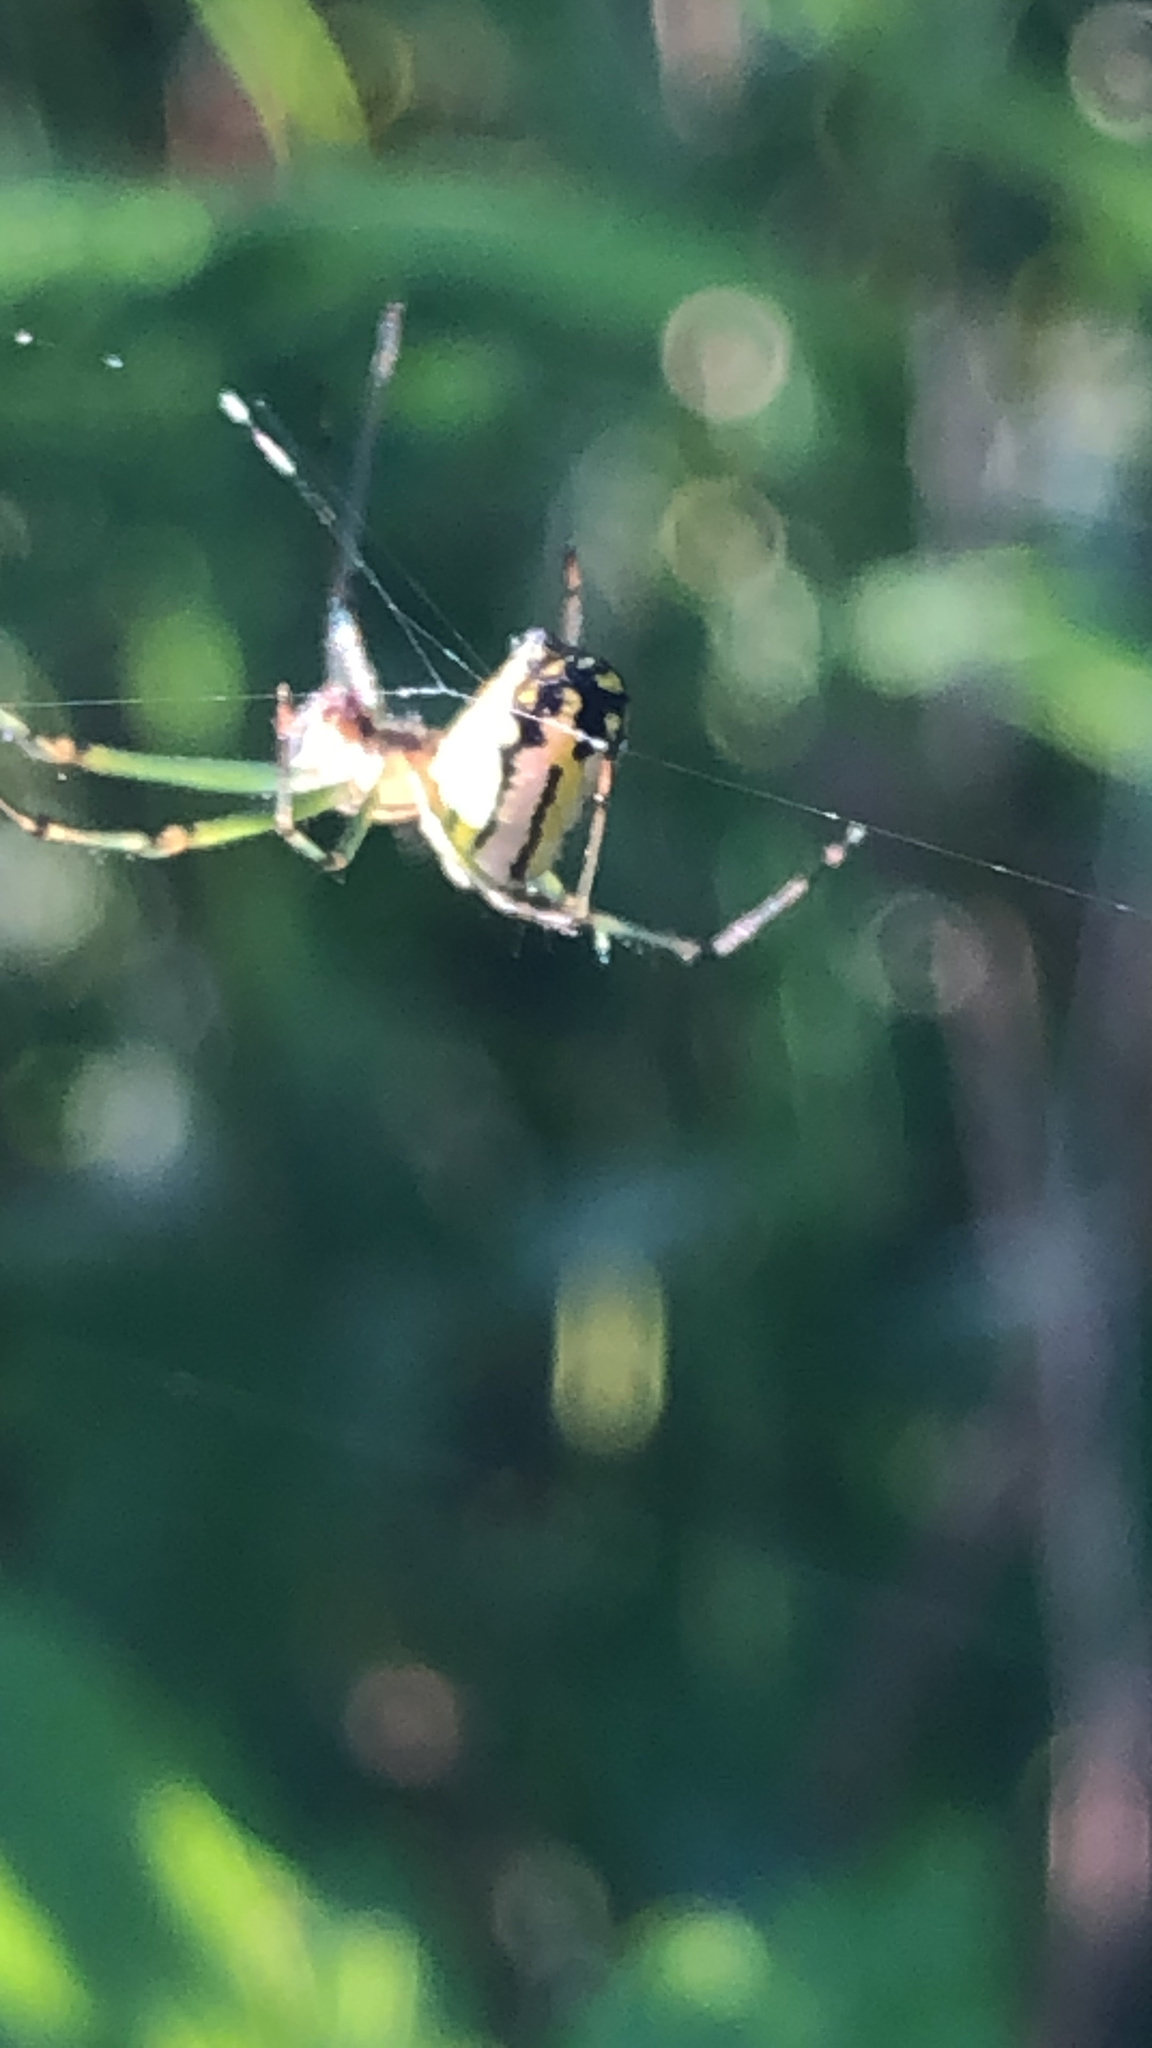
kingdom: Animalia
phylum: Arthropoda
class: Arachnida
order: Araneae
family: Tetragnathidae
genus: Leucauge
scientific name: Leucauge venusta
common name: Longjawed orb weavers
